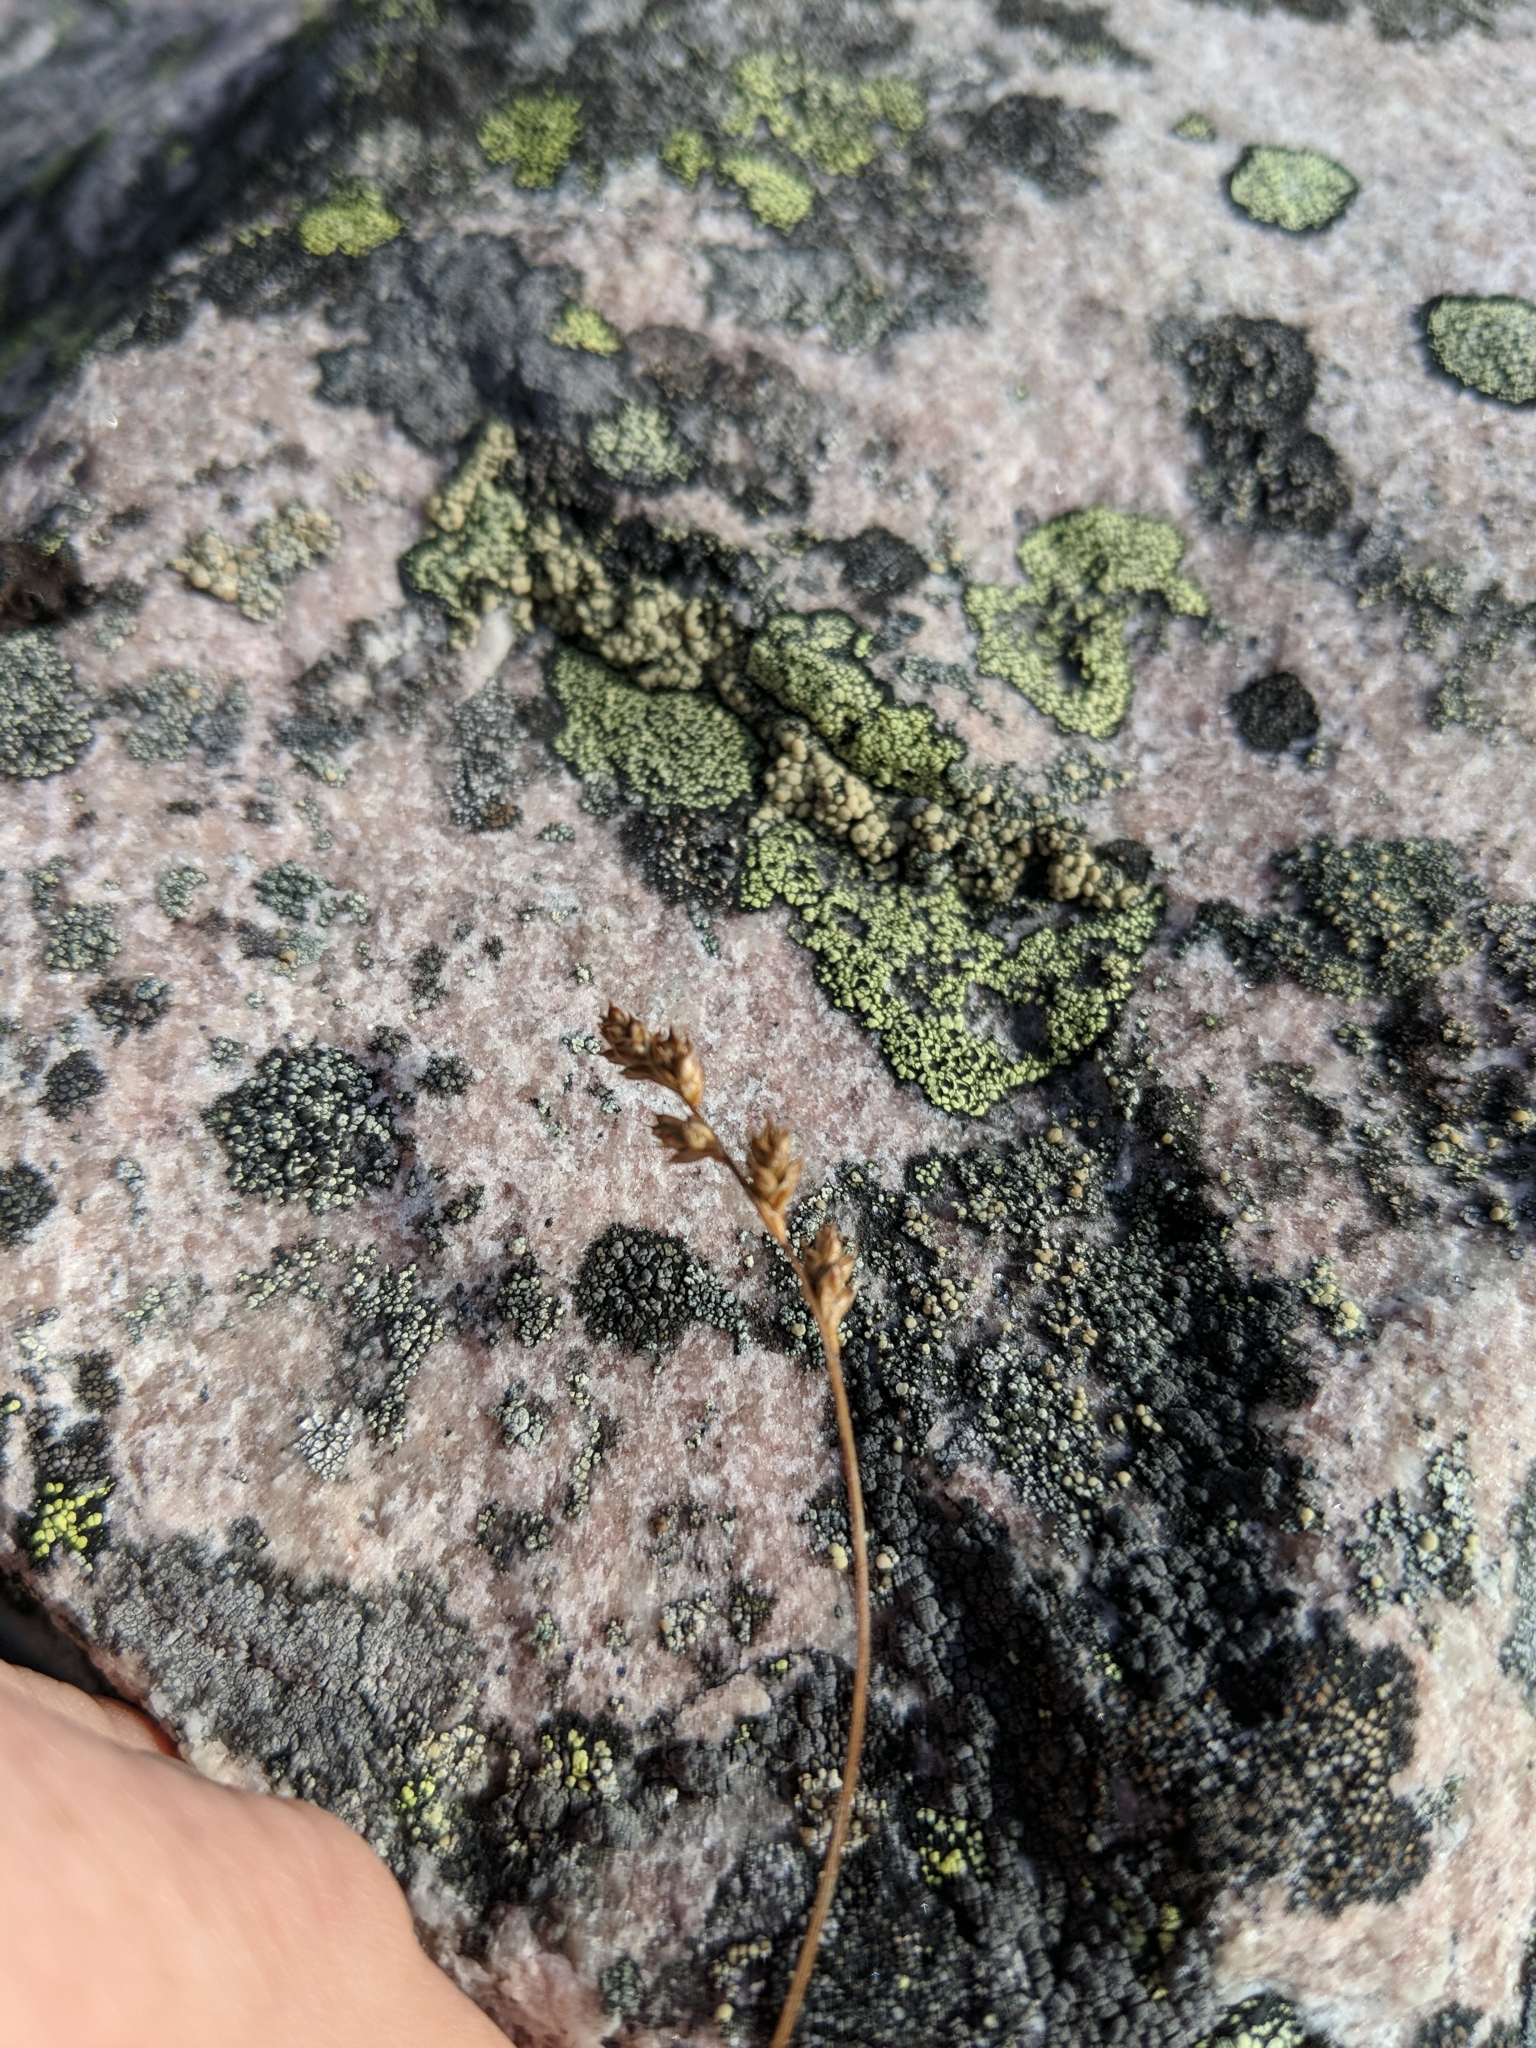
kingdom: Plantae
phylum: Tracheophyta
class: Liliopsida
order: Poales
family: Cyperaceae
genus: Carex
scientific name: Carex brunnescens
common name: Brown sedge
